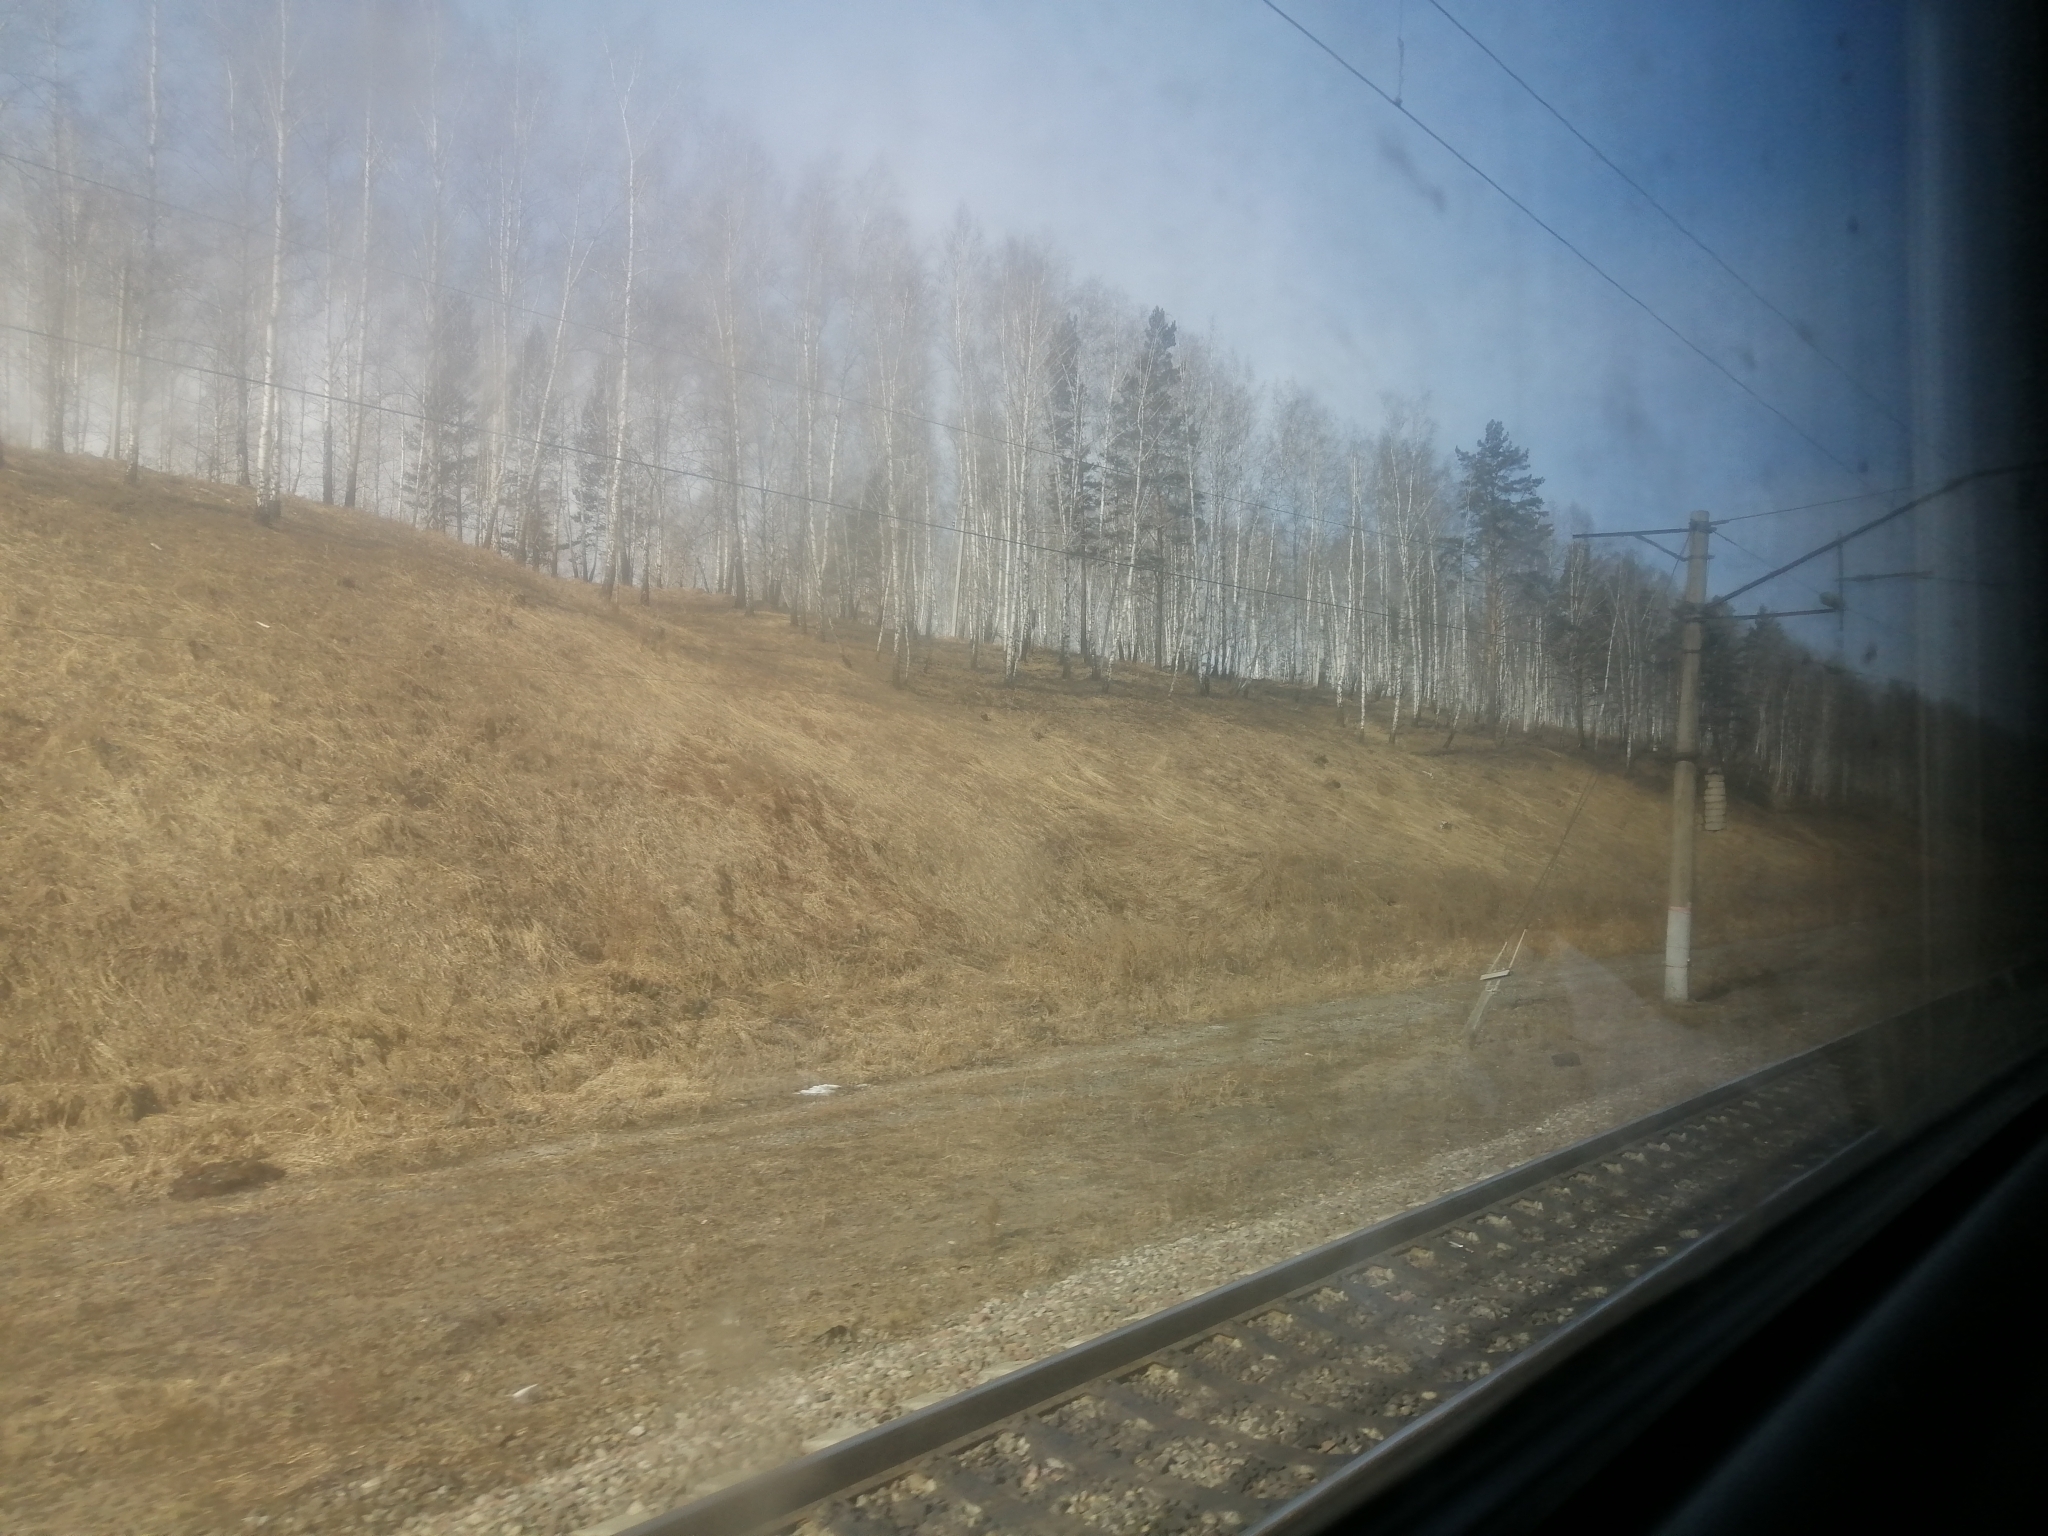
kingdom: Plantae
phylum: Tracheophyta
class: Pinopsida
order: Pinales
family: Pinaceae
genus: Pinus
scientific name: Pinus sylvestris
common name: Scots pine
